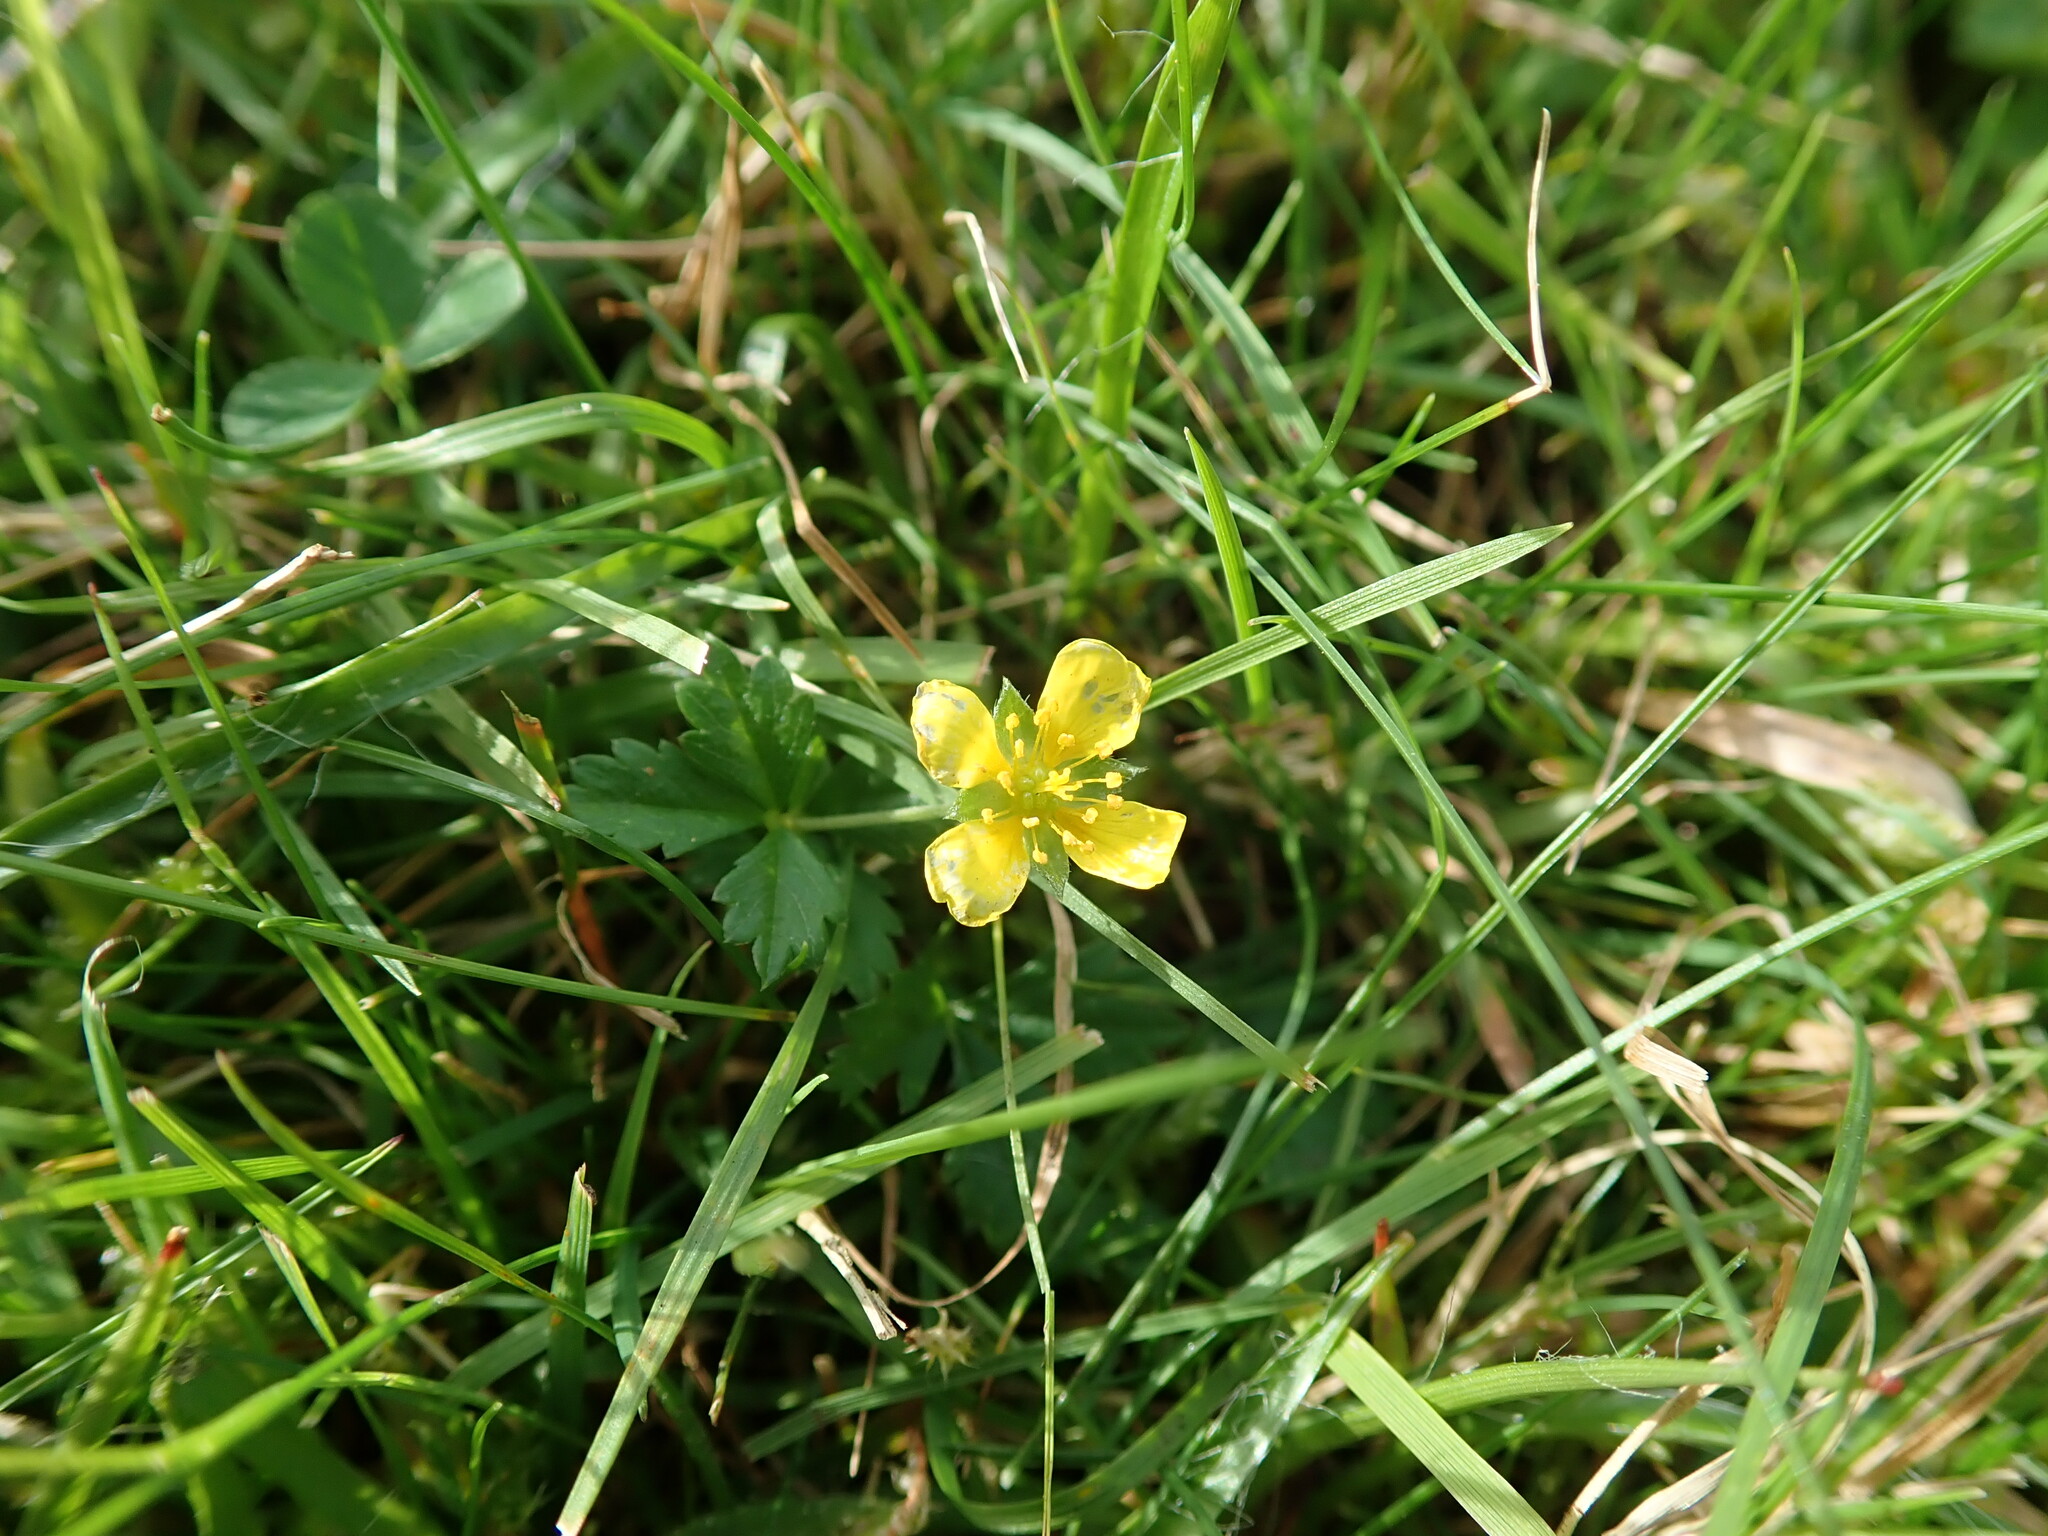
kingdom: Plantae
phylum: Tracheophyta
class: Magnoliopsida
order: Rosales
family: Rosaceae
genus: Potentilla
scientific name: Potentilla erecta
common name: Tormentil
